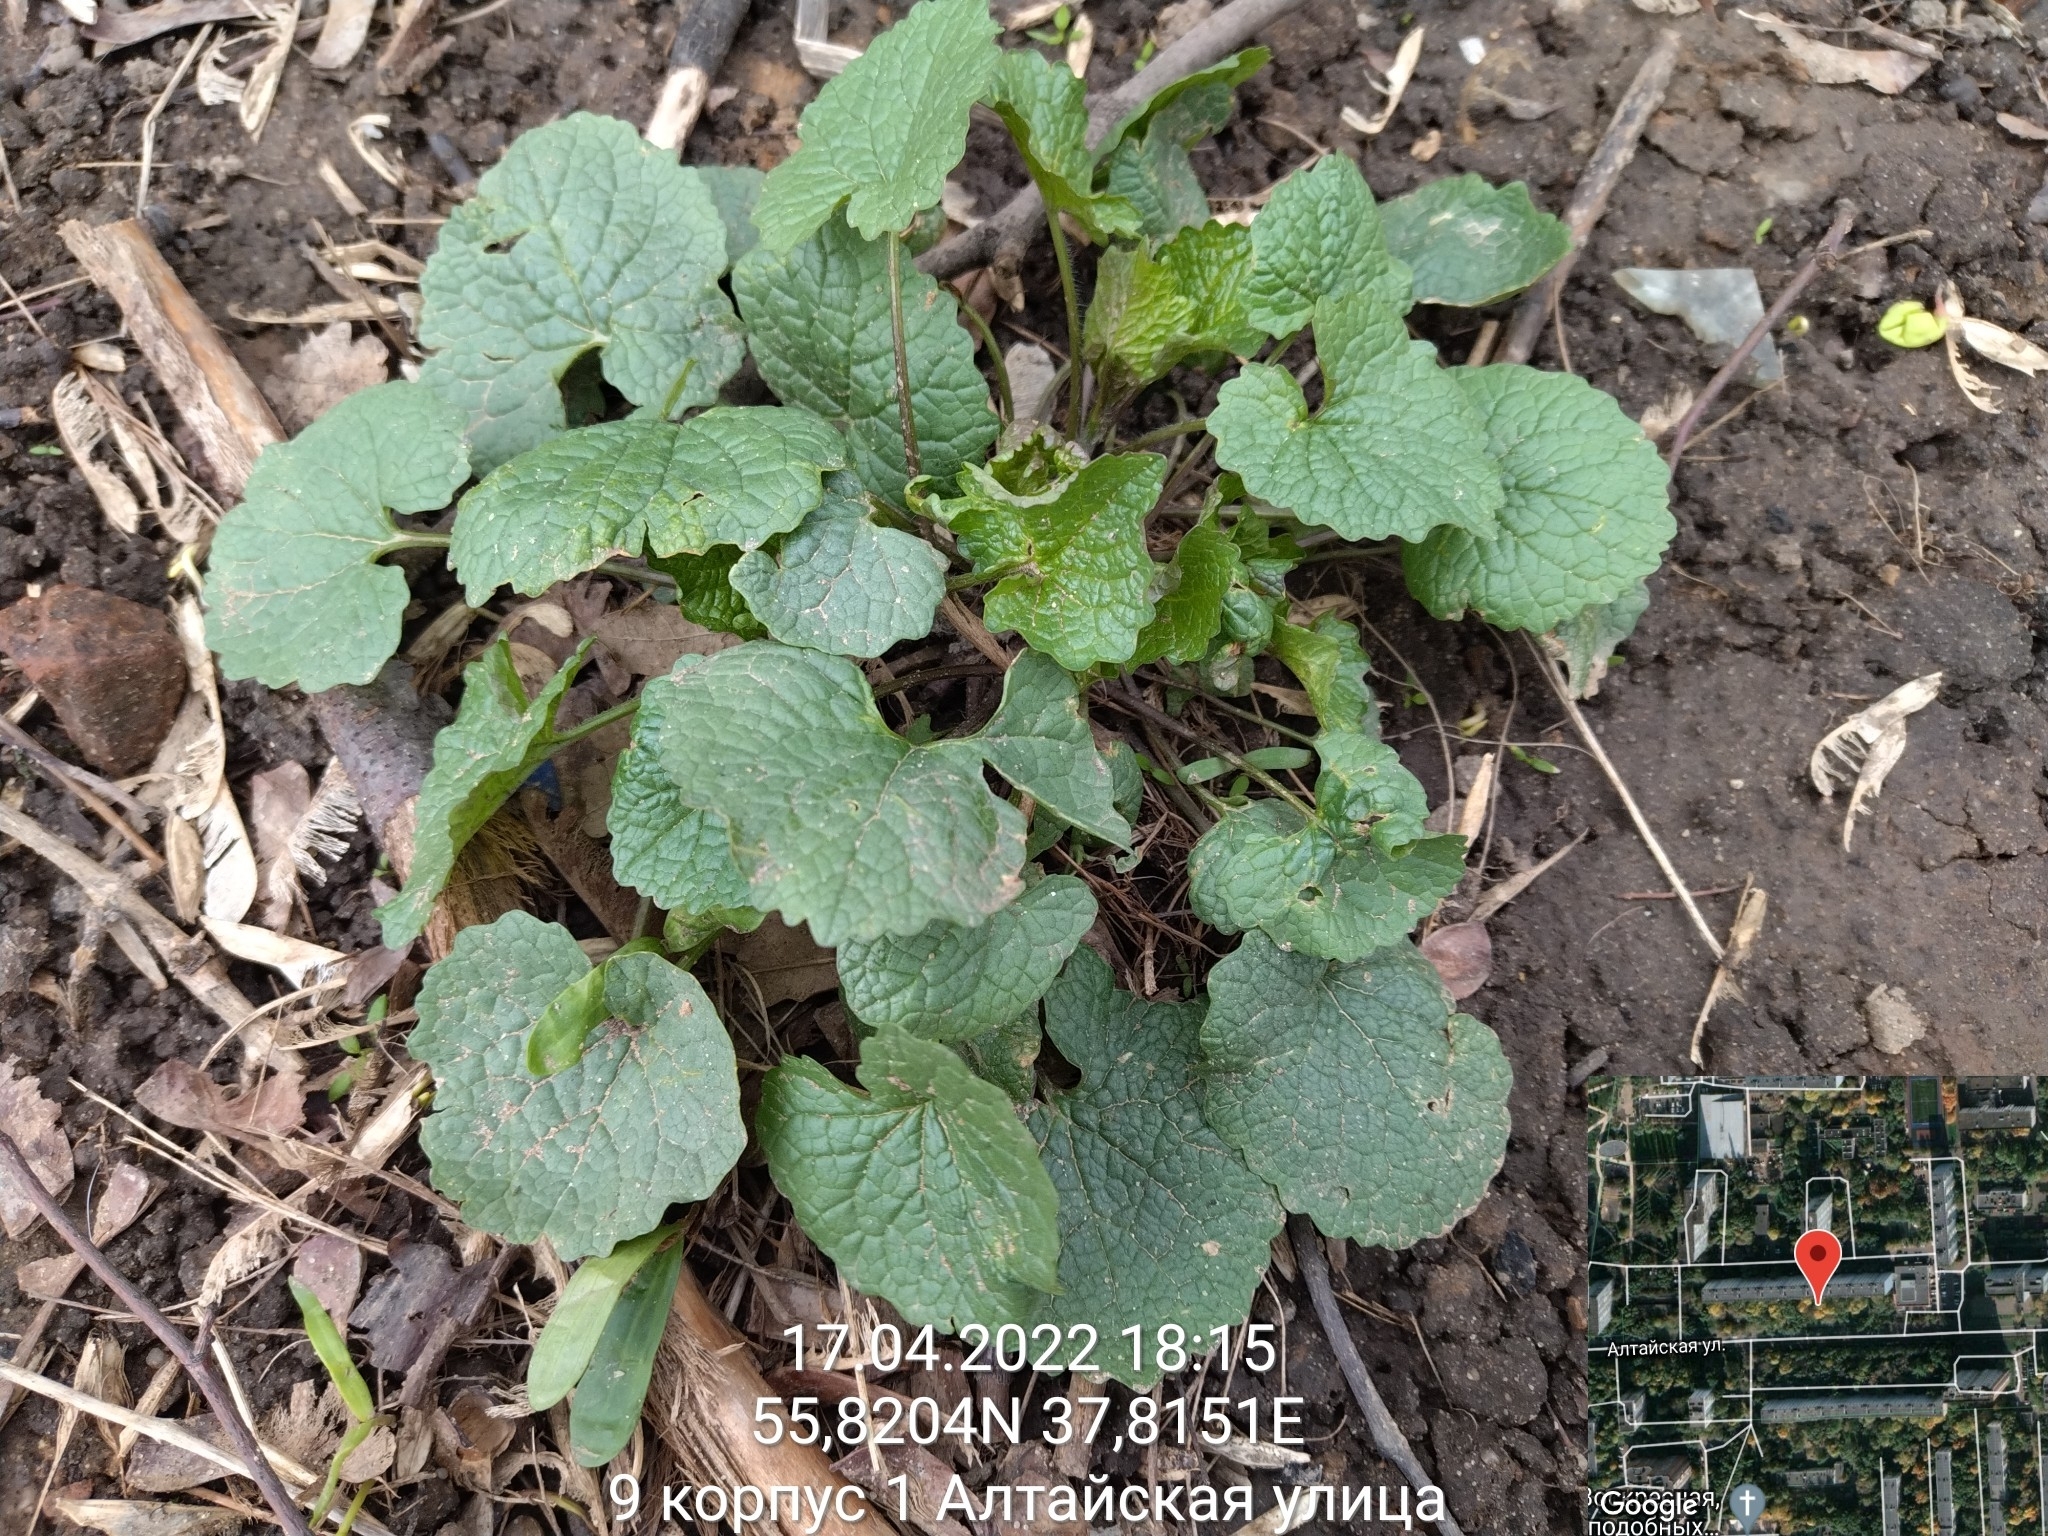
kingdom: Plantae
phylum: Tracheophyta
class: Magnoliopsida
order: Brassicales
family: Brassicaceae
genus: Alliaria
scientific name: Alliaria petiolata
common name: Garlic mustard
